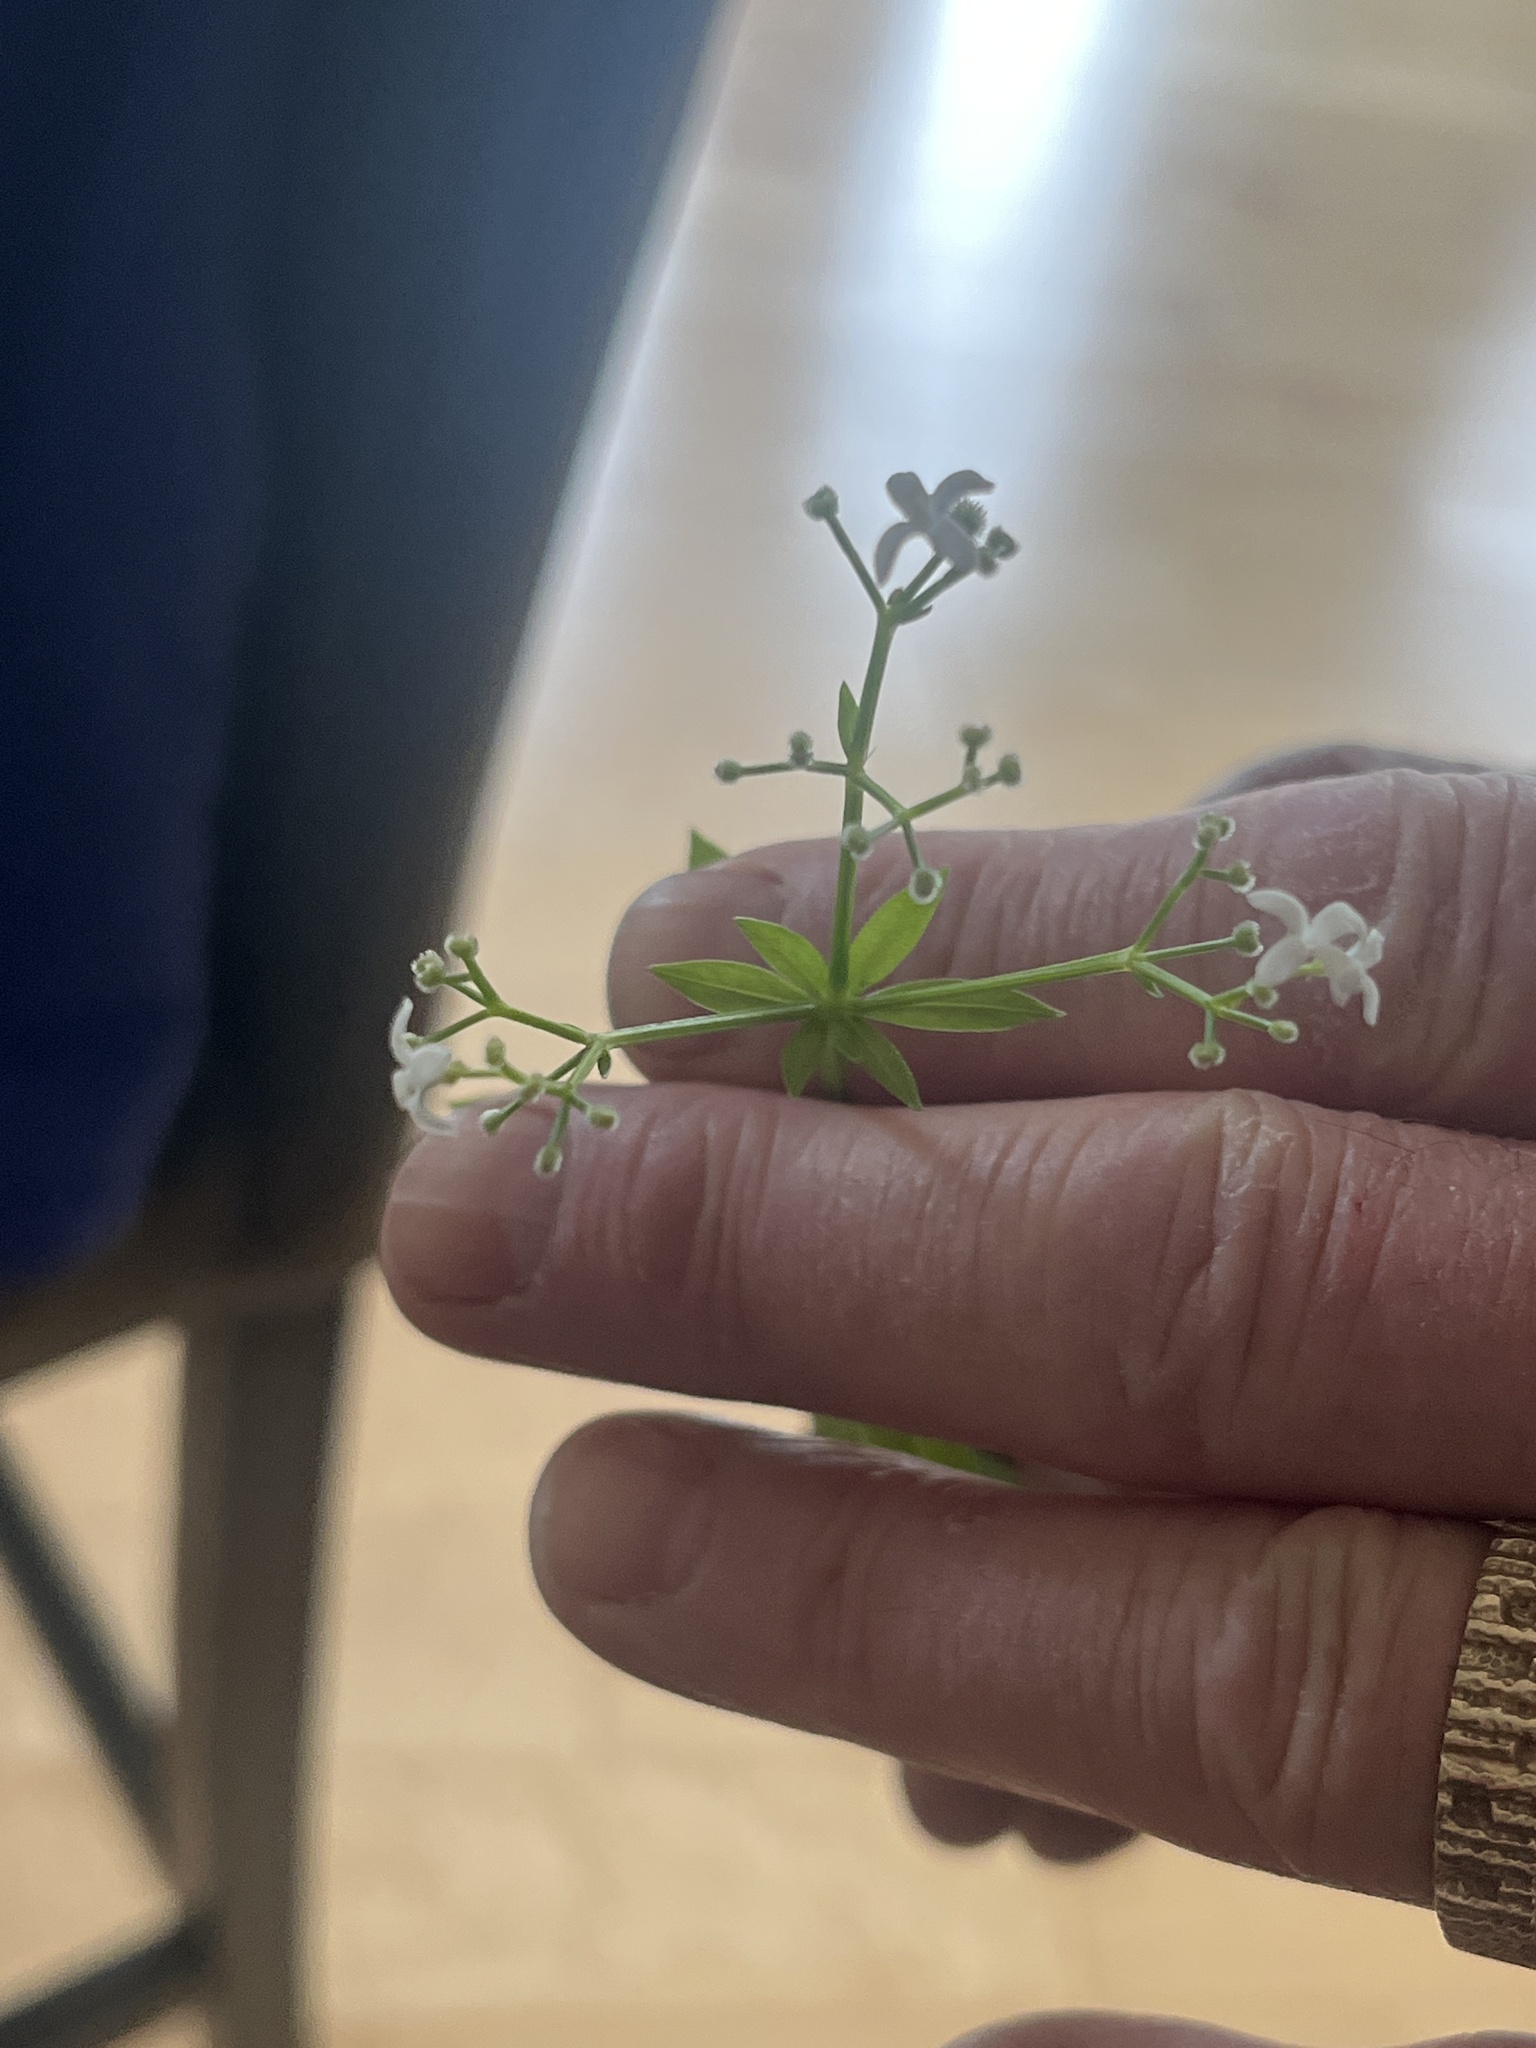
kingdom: Plantae
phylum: Tracheophyta
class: Magnoliopsida
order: Gentianales
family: Rubiaceae
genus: Galium
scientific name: Galium odoratum
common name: Sweet woodruff
